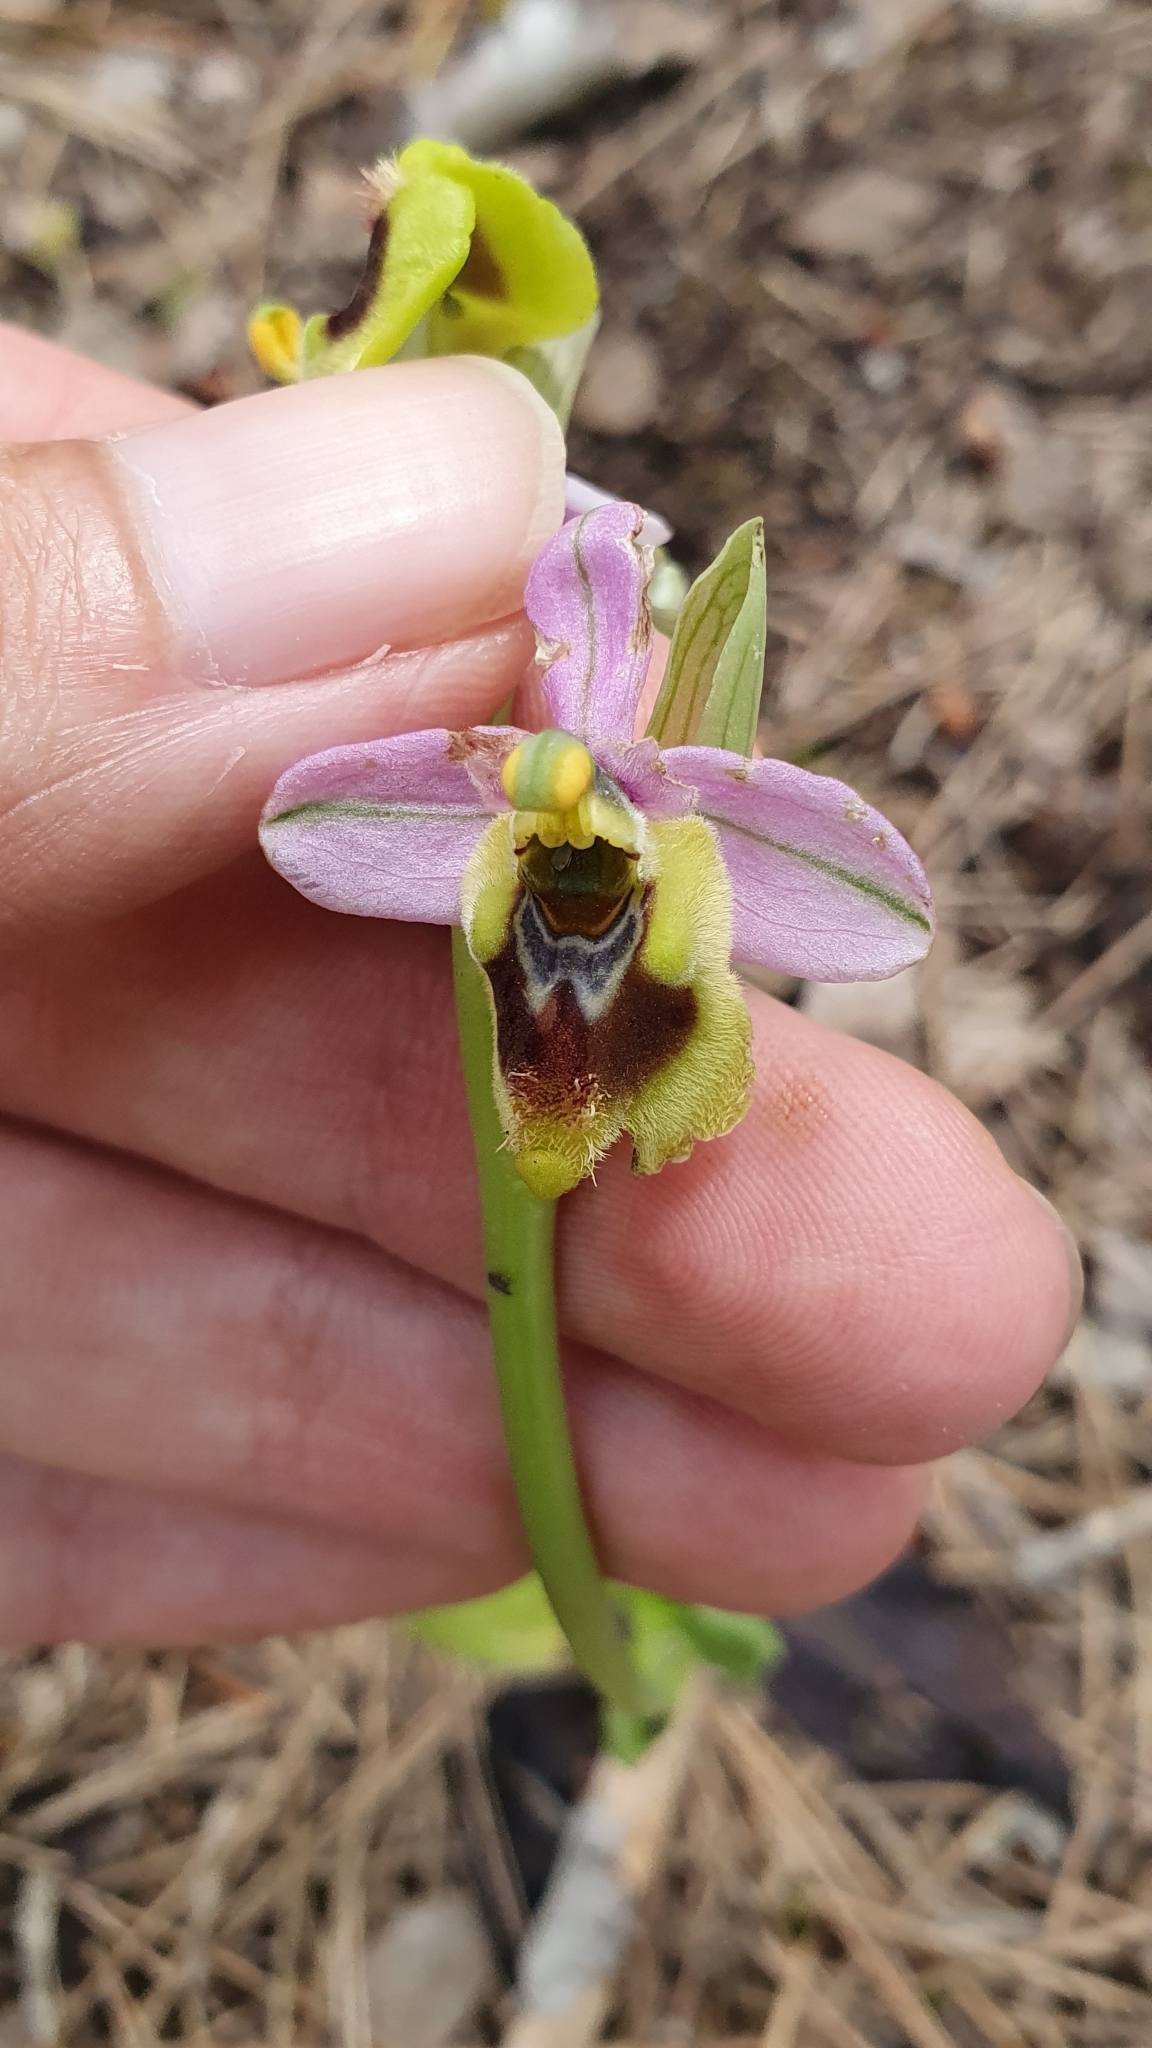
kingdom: Plantae
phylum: Tracheophyta
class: Liliopsida
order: Asparagales
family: Orchidaceae
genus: Ophrys
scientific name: Ophrys tenthredinifera
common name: Sawfly orchid
